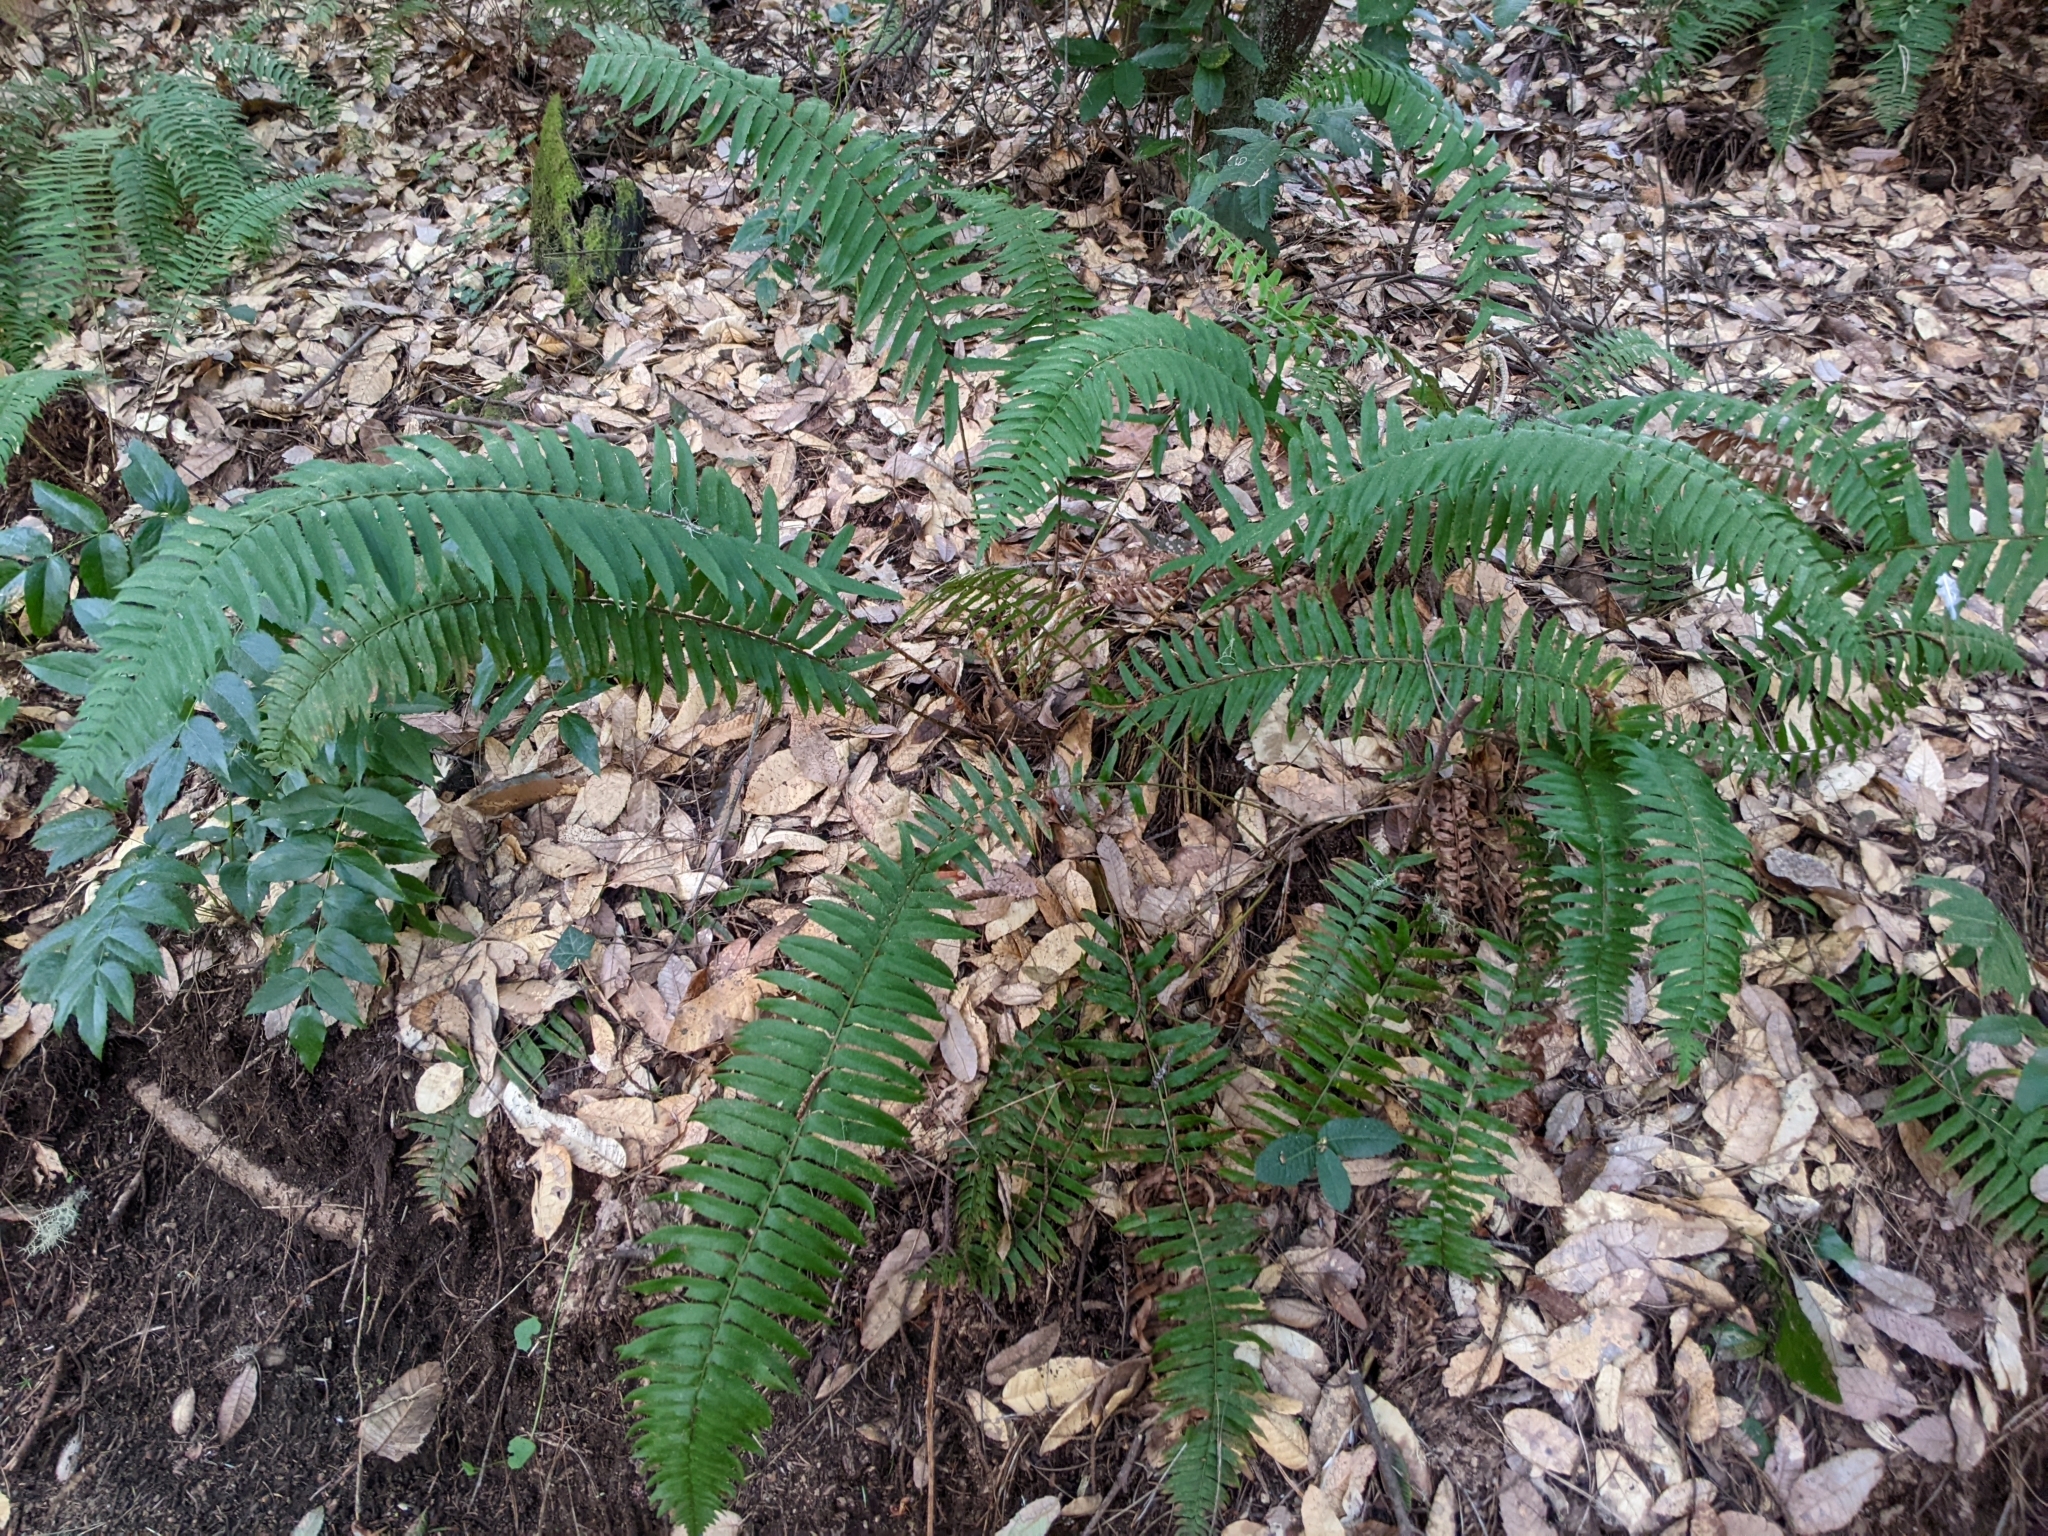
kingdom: Plantae
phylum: Tracheophyta
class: Polypodiopsida
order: Polypodiales
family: Dryopteridaceae
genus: Polystichum
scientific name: Polystichum munitum
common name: Western sword-fern
